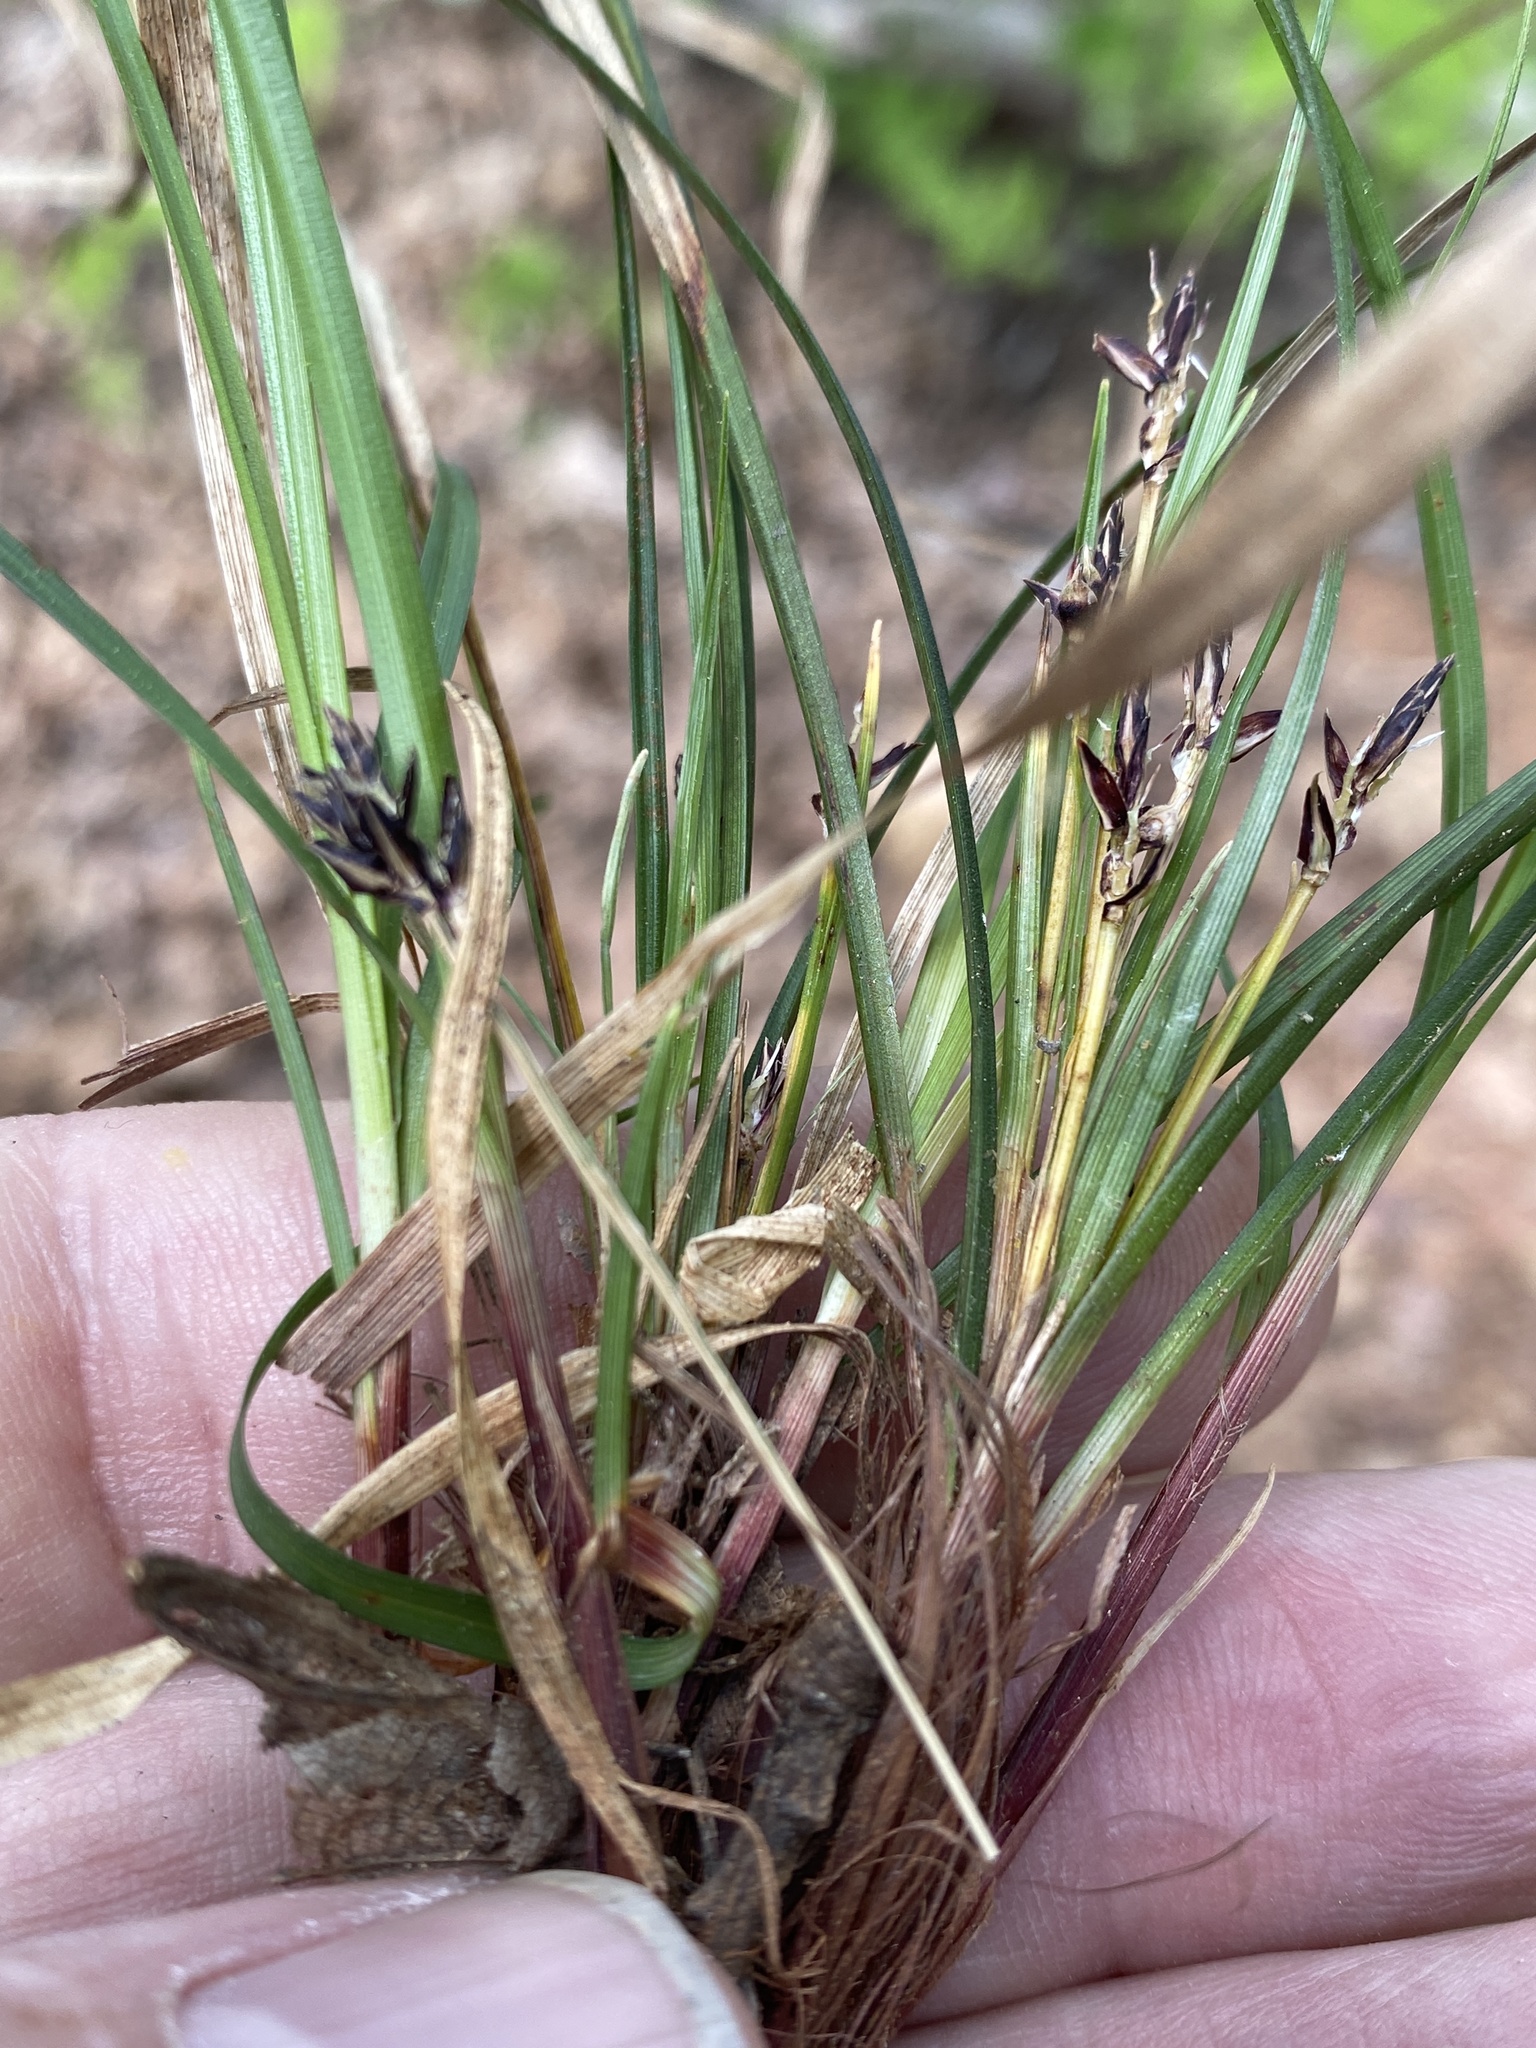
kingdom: Plantae
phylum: Tracheophyta
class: Liliopsida
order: Poales
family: Cyperaceae
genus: Carex
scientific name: Carex nigromarginata
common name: Black-edged sedge
